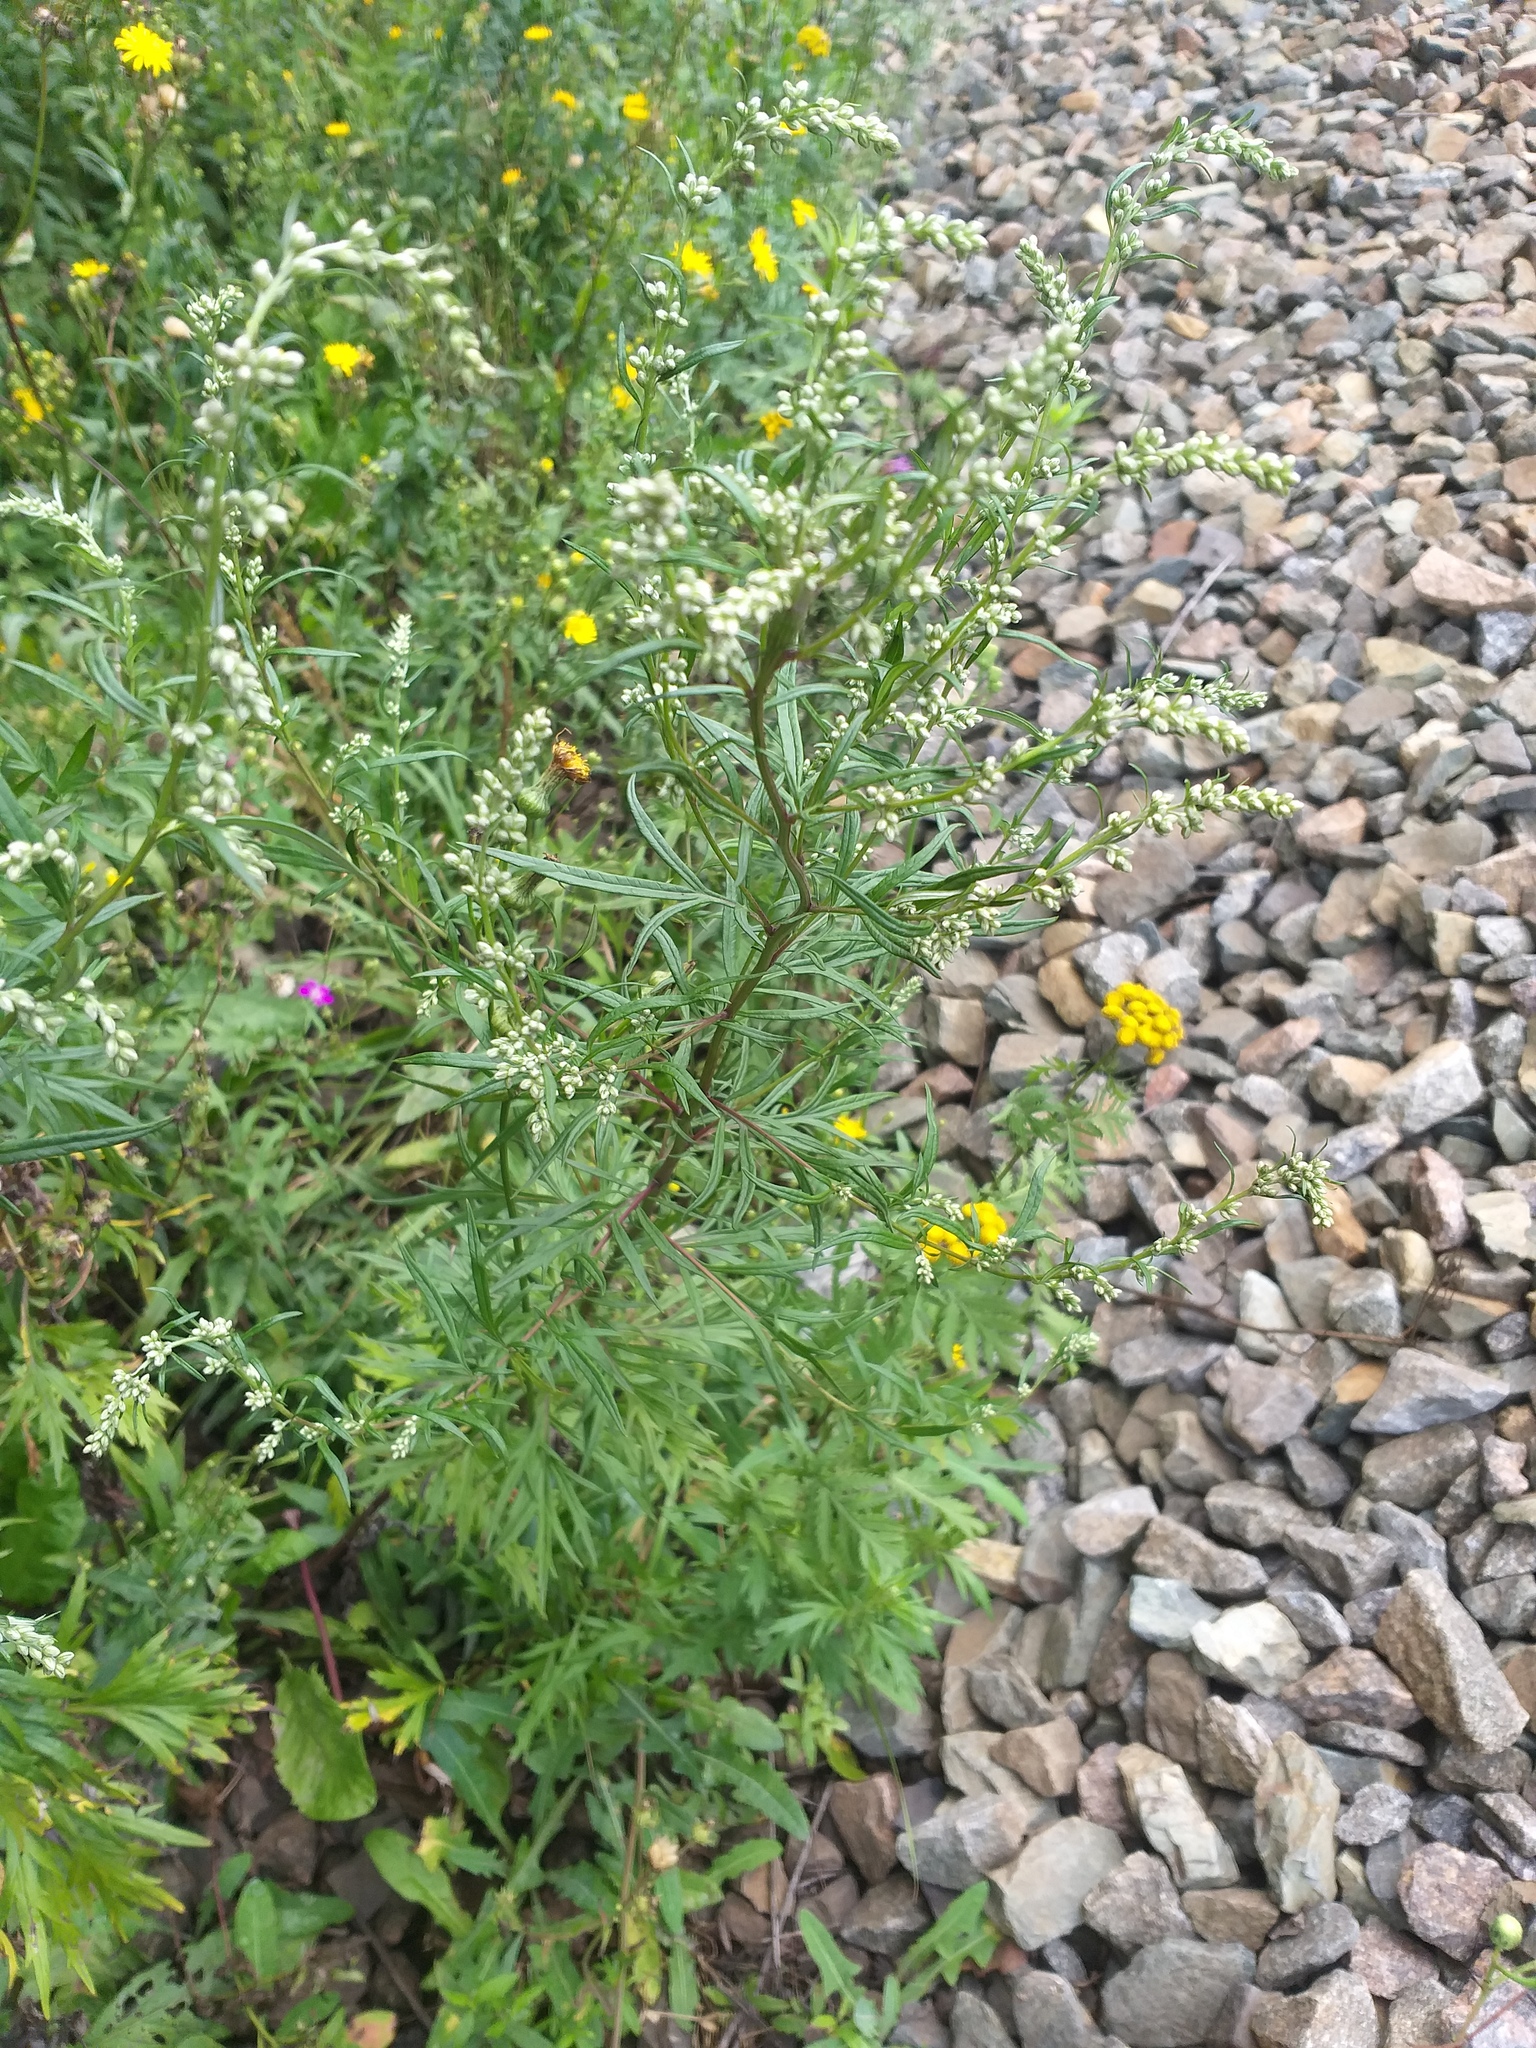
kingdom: Plantae
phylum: Tracheophyta
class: Magnoliopsida
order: Asterales
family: Asteraceae
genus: Artemisia
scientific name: Artemisia vulgaris
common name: Mugwort
